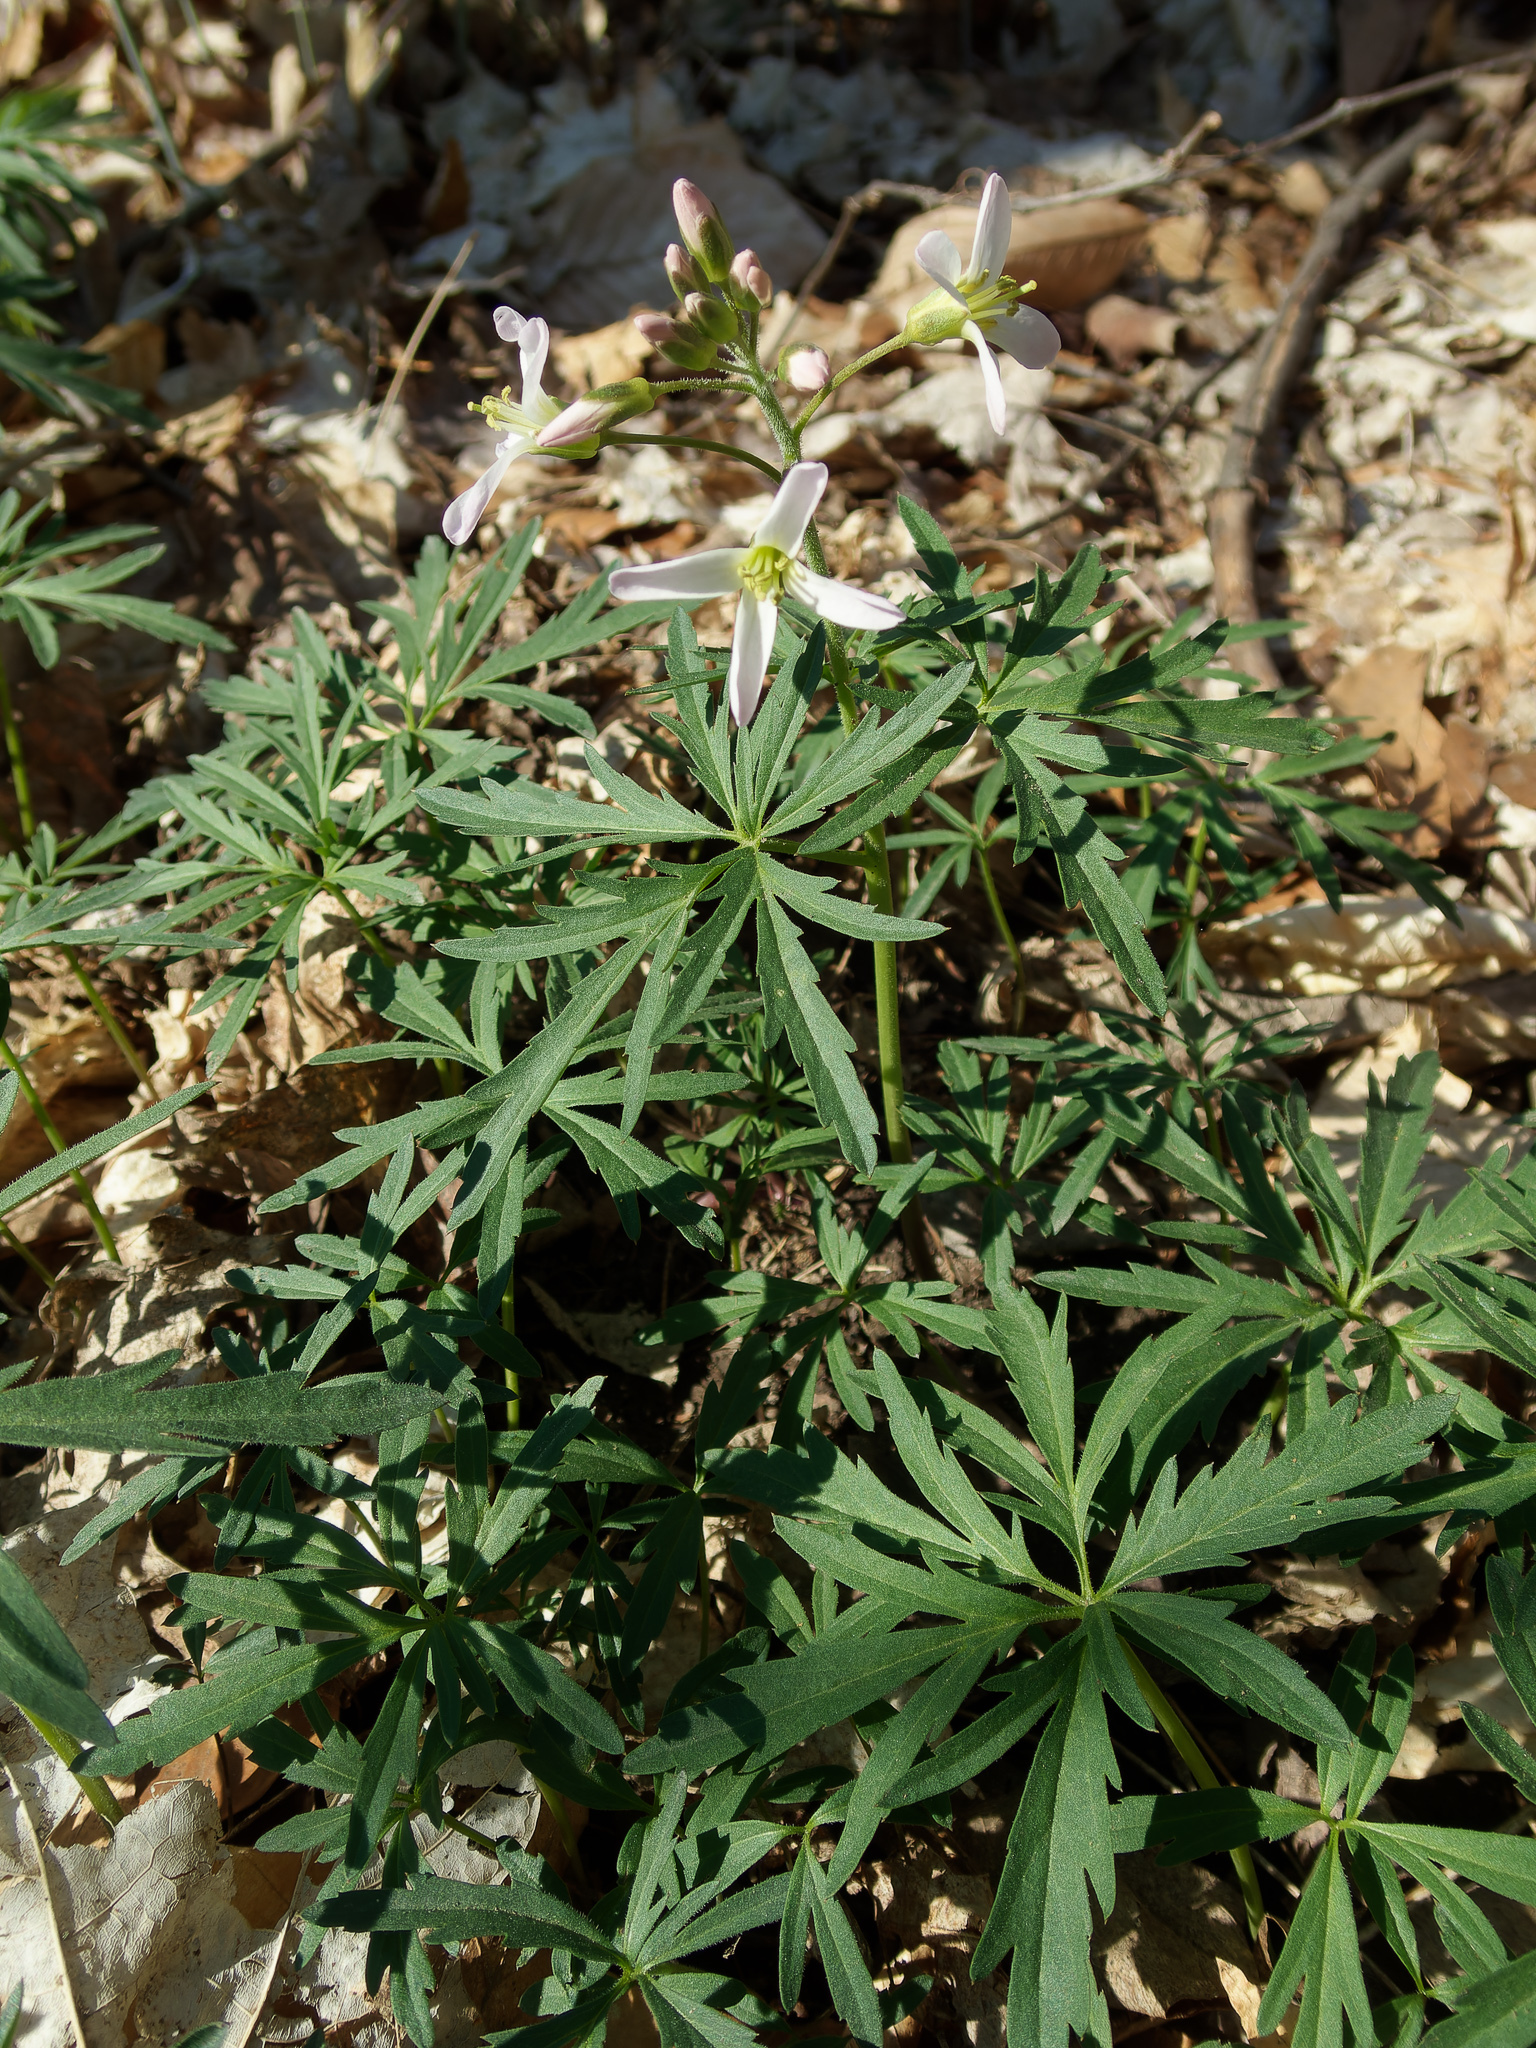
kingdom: Plantae
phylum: Tracheophyta
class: Magnoliopsida
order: Brassicales
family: Brassicaceae
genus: Cardamine
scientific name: Cardamine concatenata
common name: Cut-leaf toothcup
